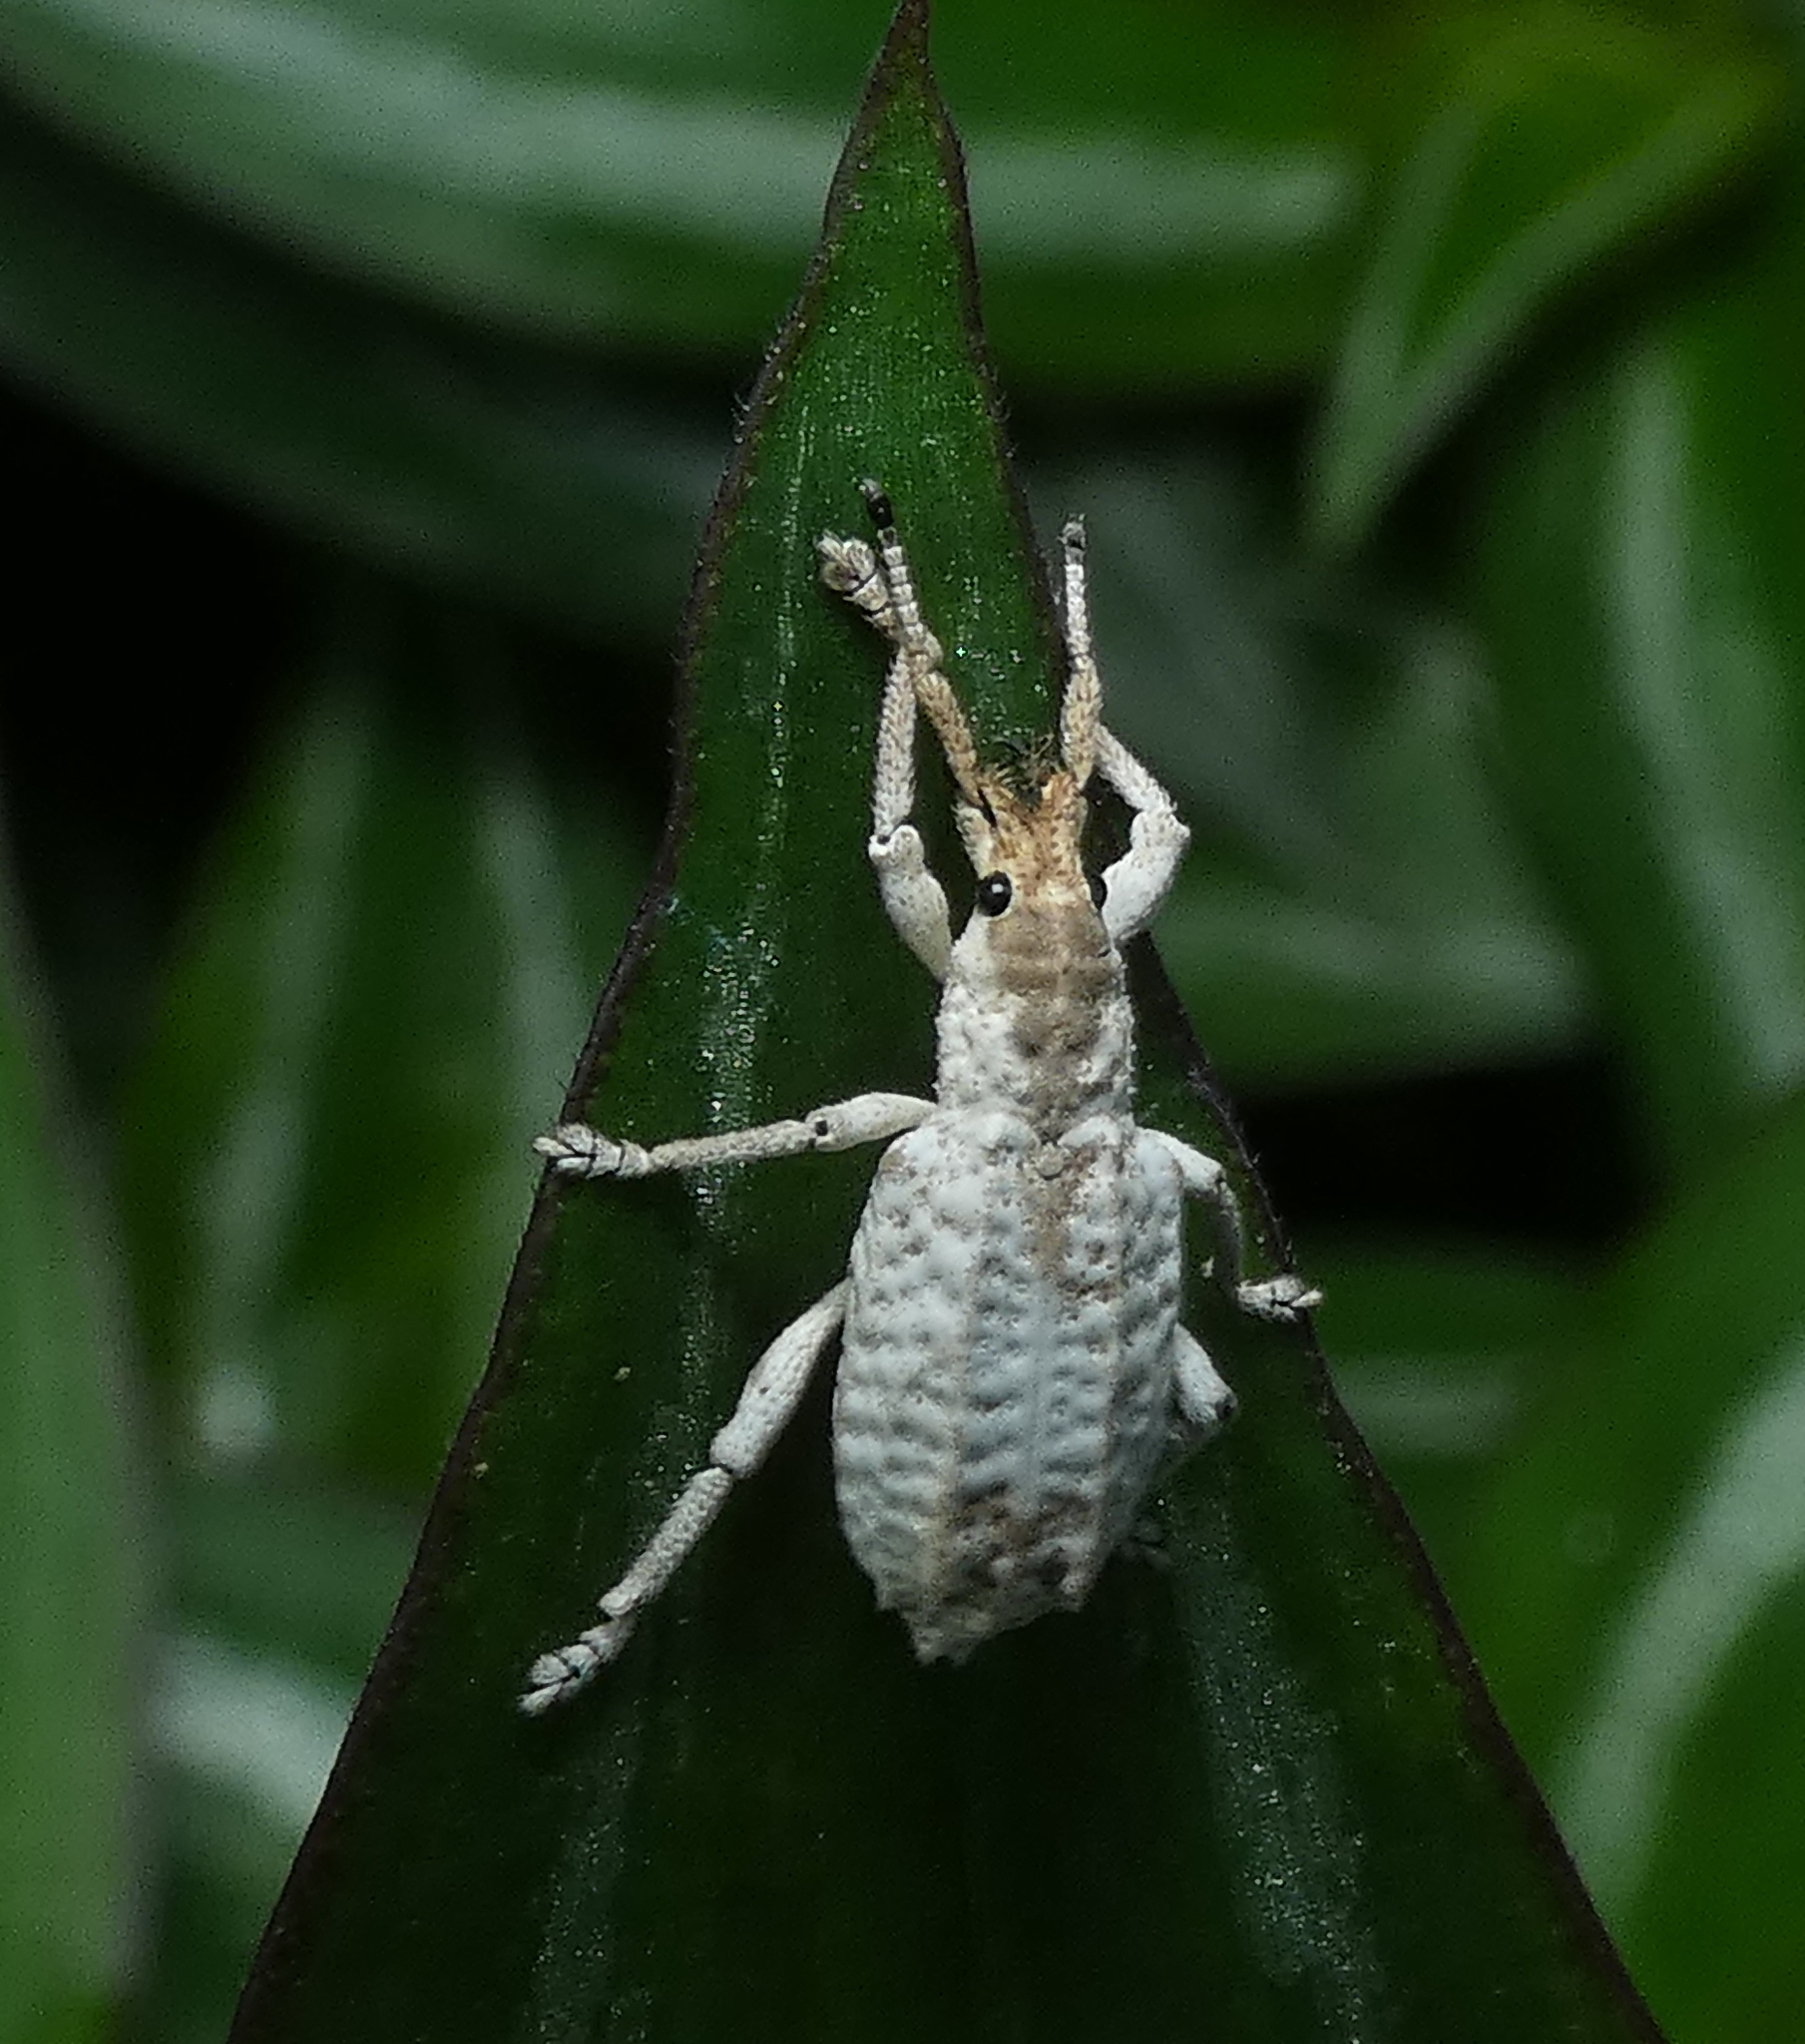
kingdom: Animalia
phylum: Arthropoda
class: Insecta
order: Coleoptera
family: Curculionidae
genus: Compsus
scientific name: Compsus niveus
